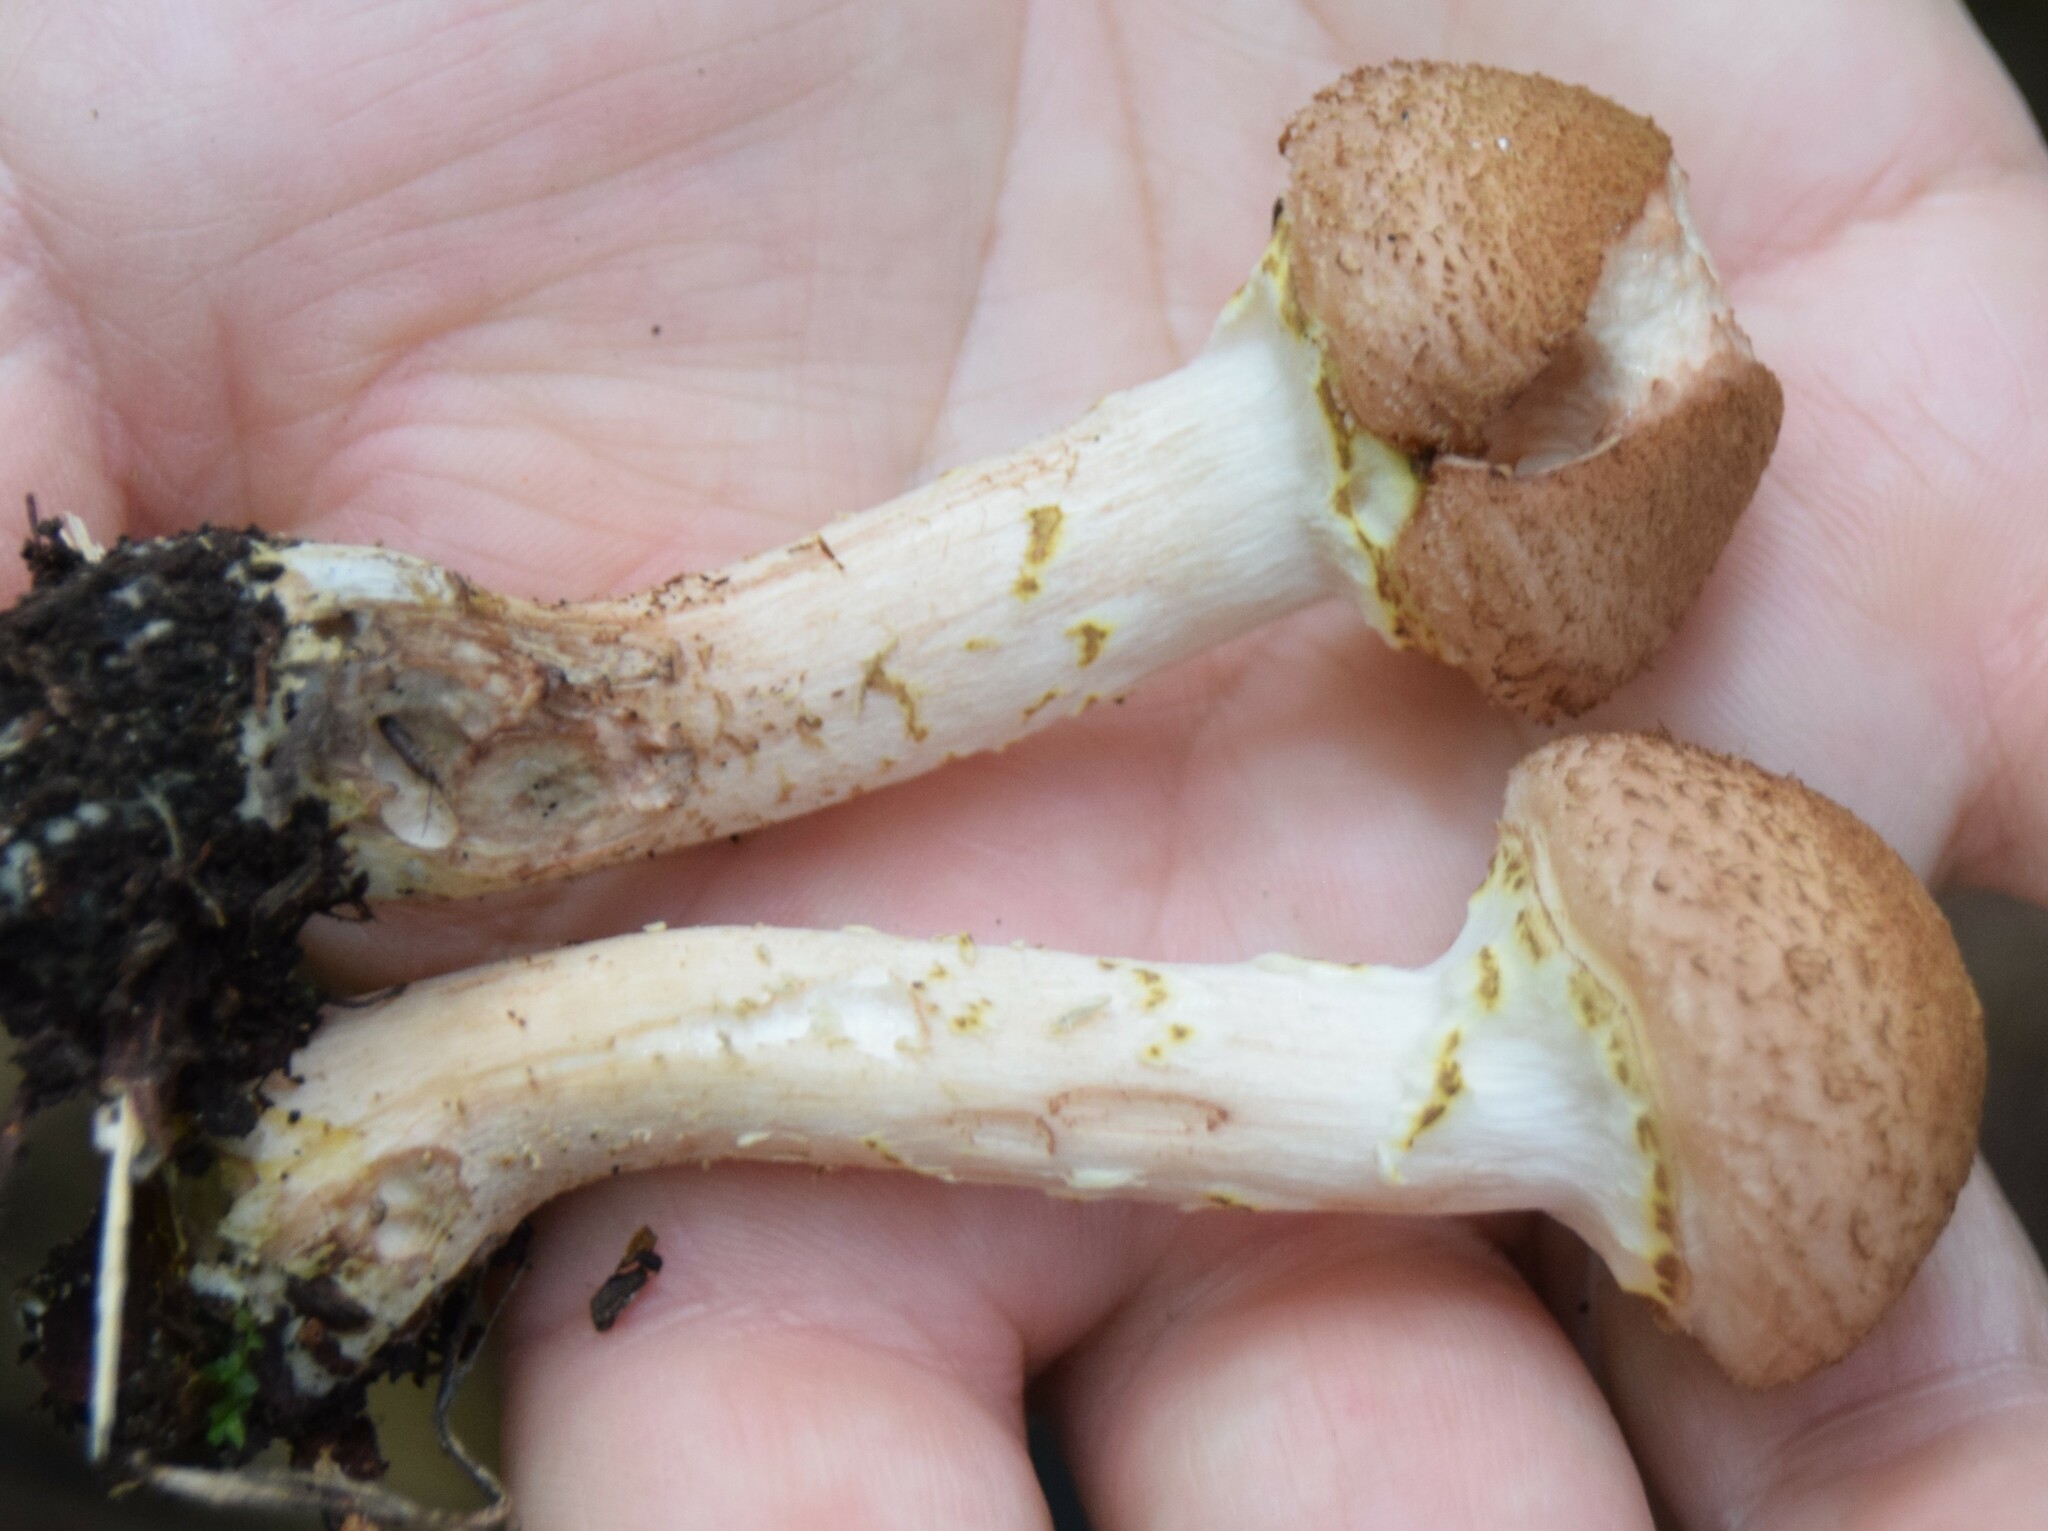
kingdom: Fungi
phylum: Basidiomycota
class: Agaricomycetes
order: Agaricales
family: Physalacriaceae
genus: Armillaria
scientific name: Armillaria sinapina
